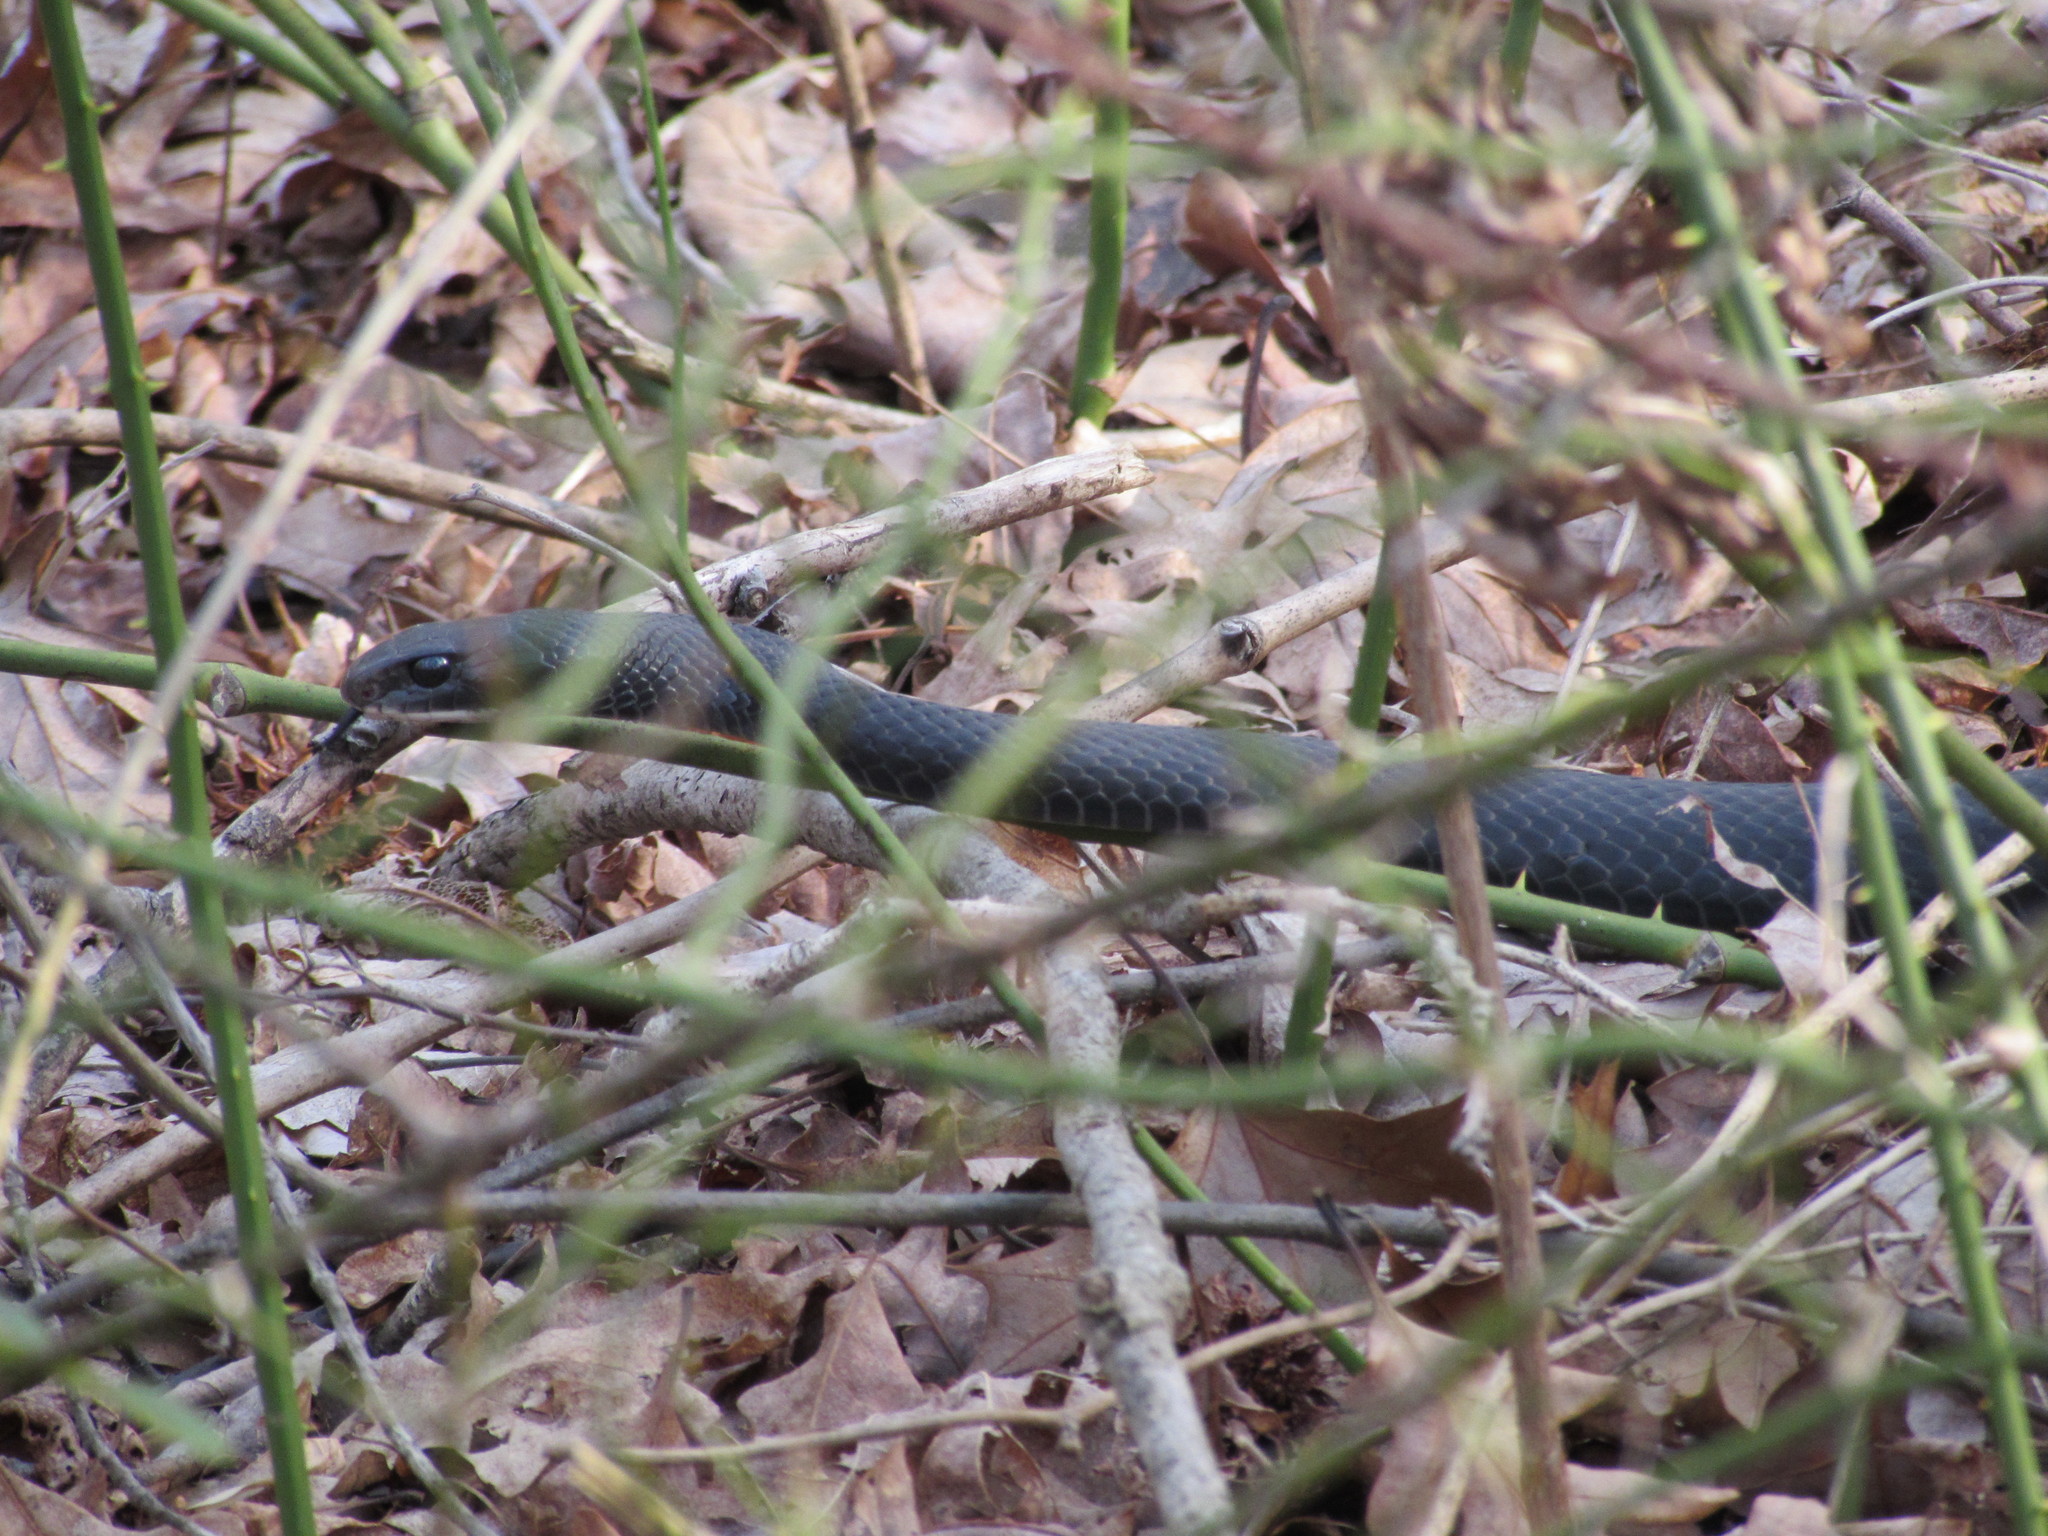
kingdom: Animalia
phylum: Chordata
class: Squamata
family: Colubridae
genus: Coluber
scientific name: Coluber constrictor
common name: Eastern racer
